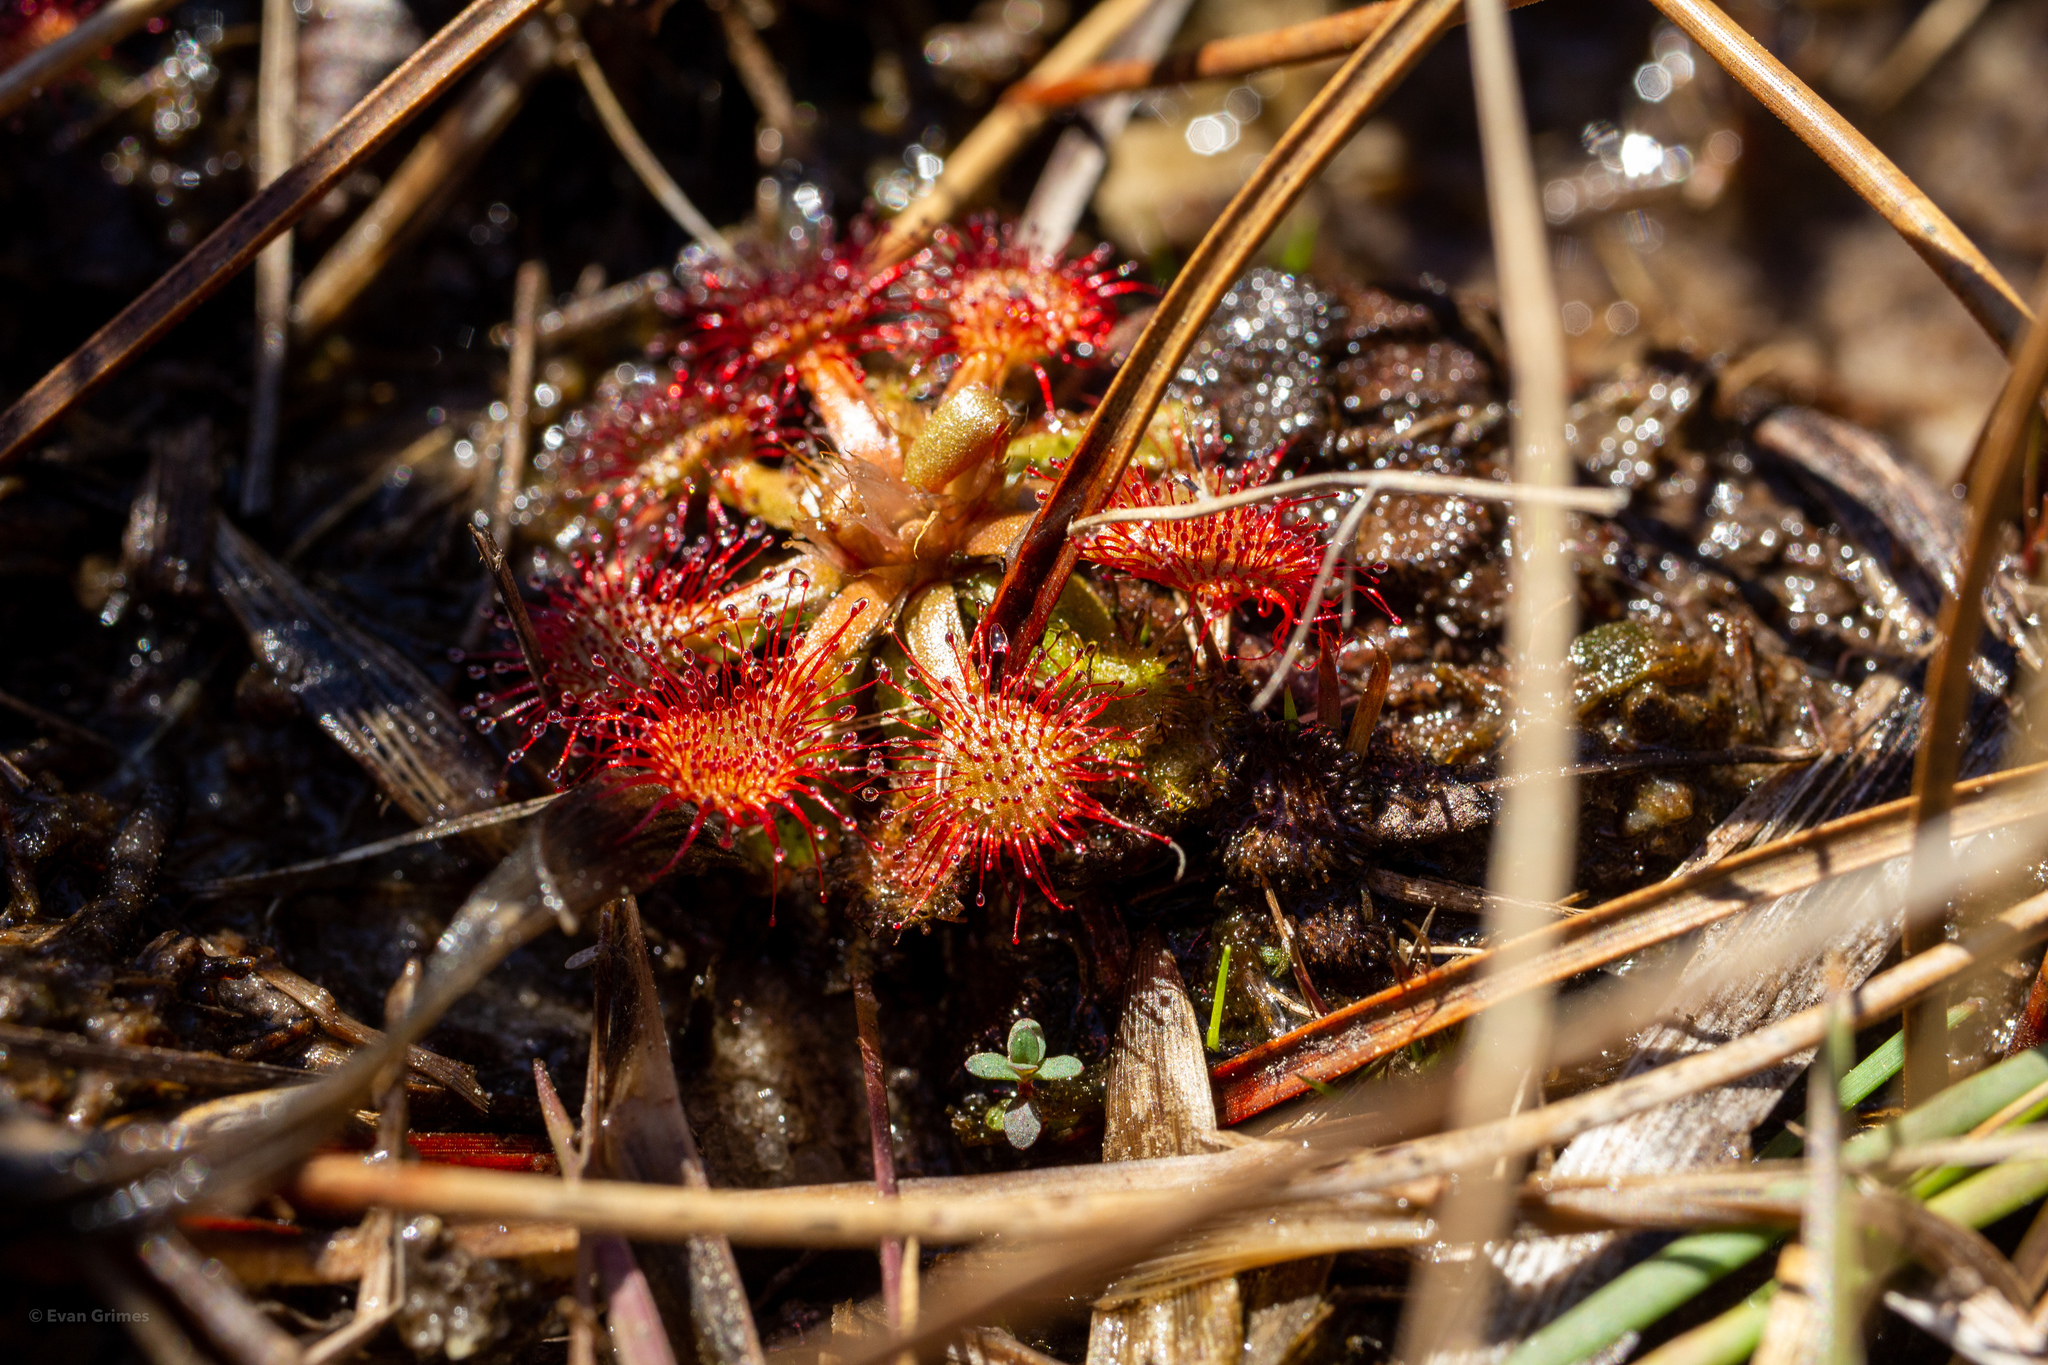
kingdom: Plantae
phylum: Tracheophyta
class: Magnoliopsida
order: Caryophyllales
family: Droseraceae
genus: Drosera
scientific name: Drosera capillaris
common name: Pink sundew
